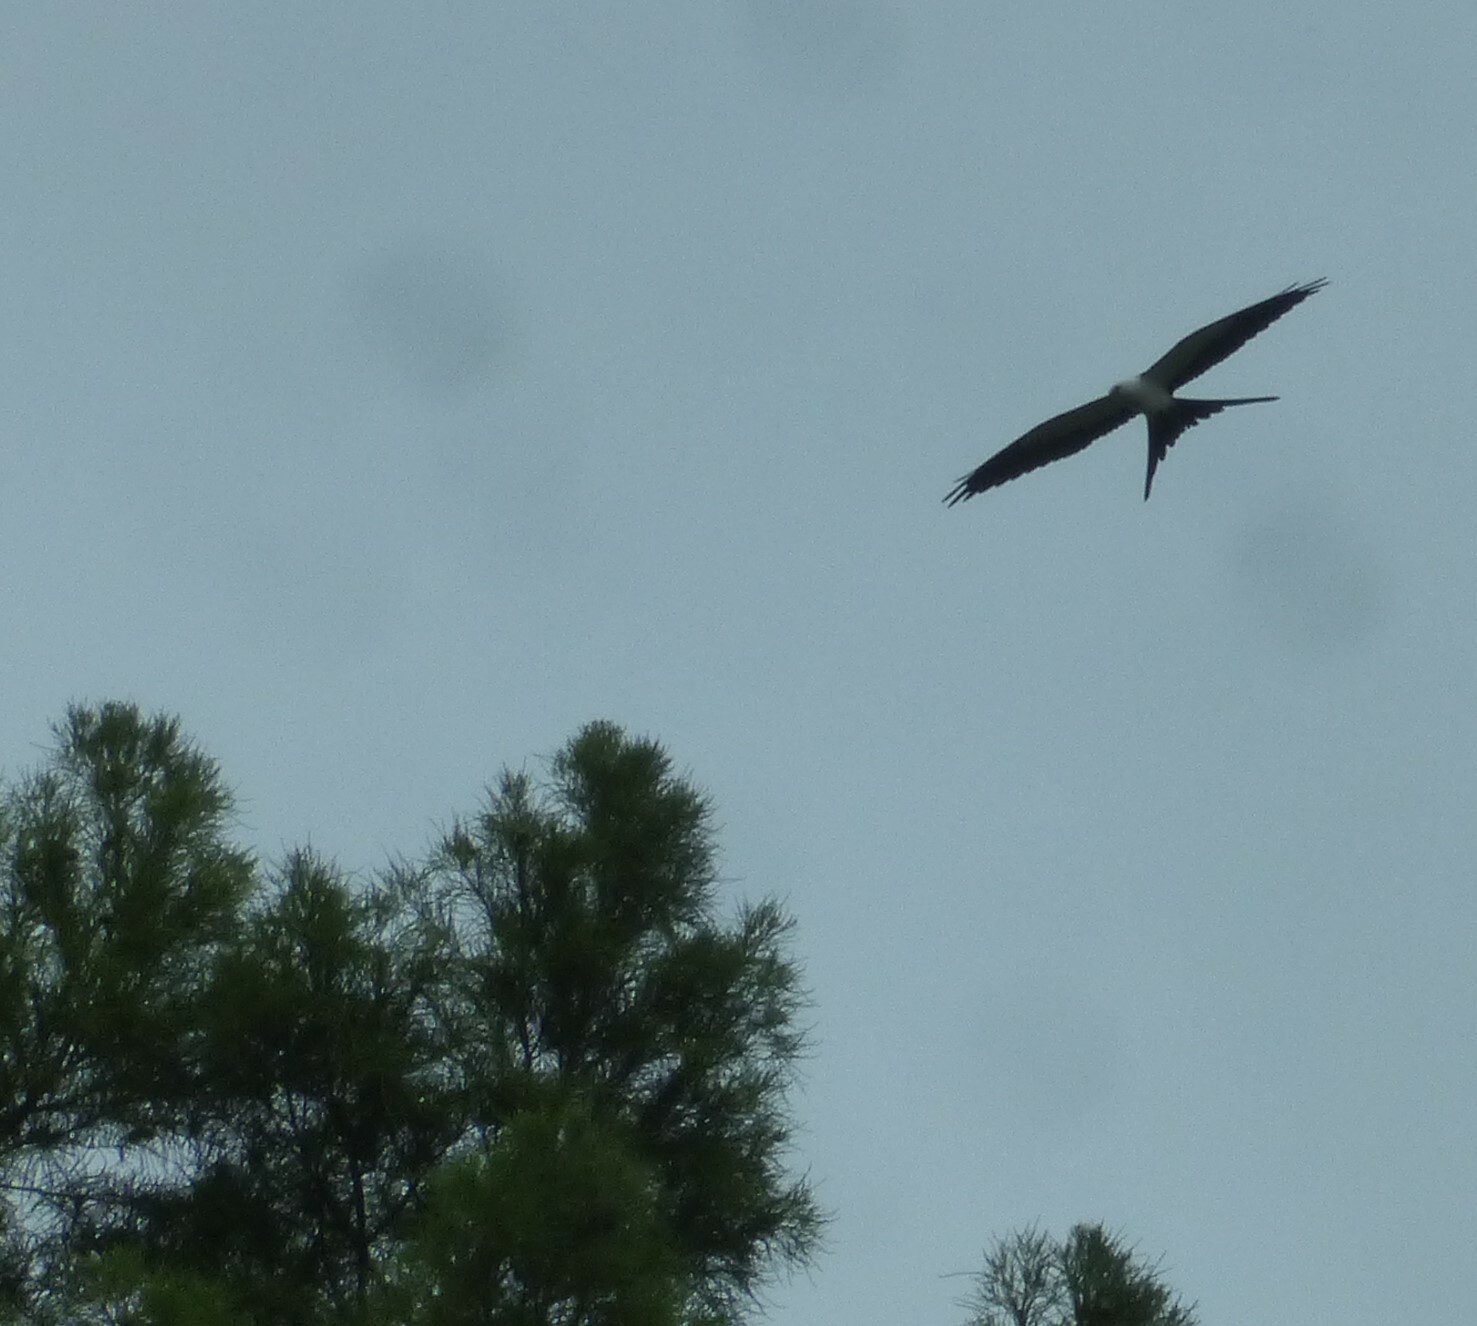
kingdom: Animalia
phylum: Chordata
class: Aves
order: Accipitriformes
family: Accipitridae
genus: Elanoides
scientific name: Elanoides forficatus
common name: Swallow-tailed kite
